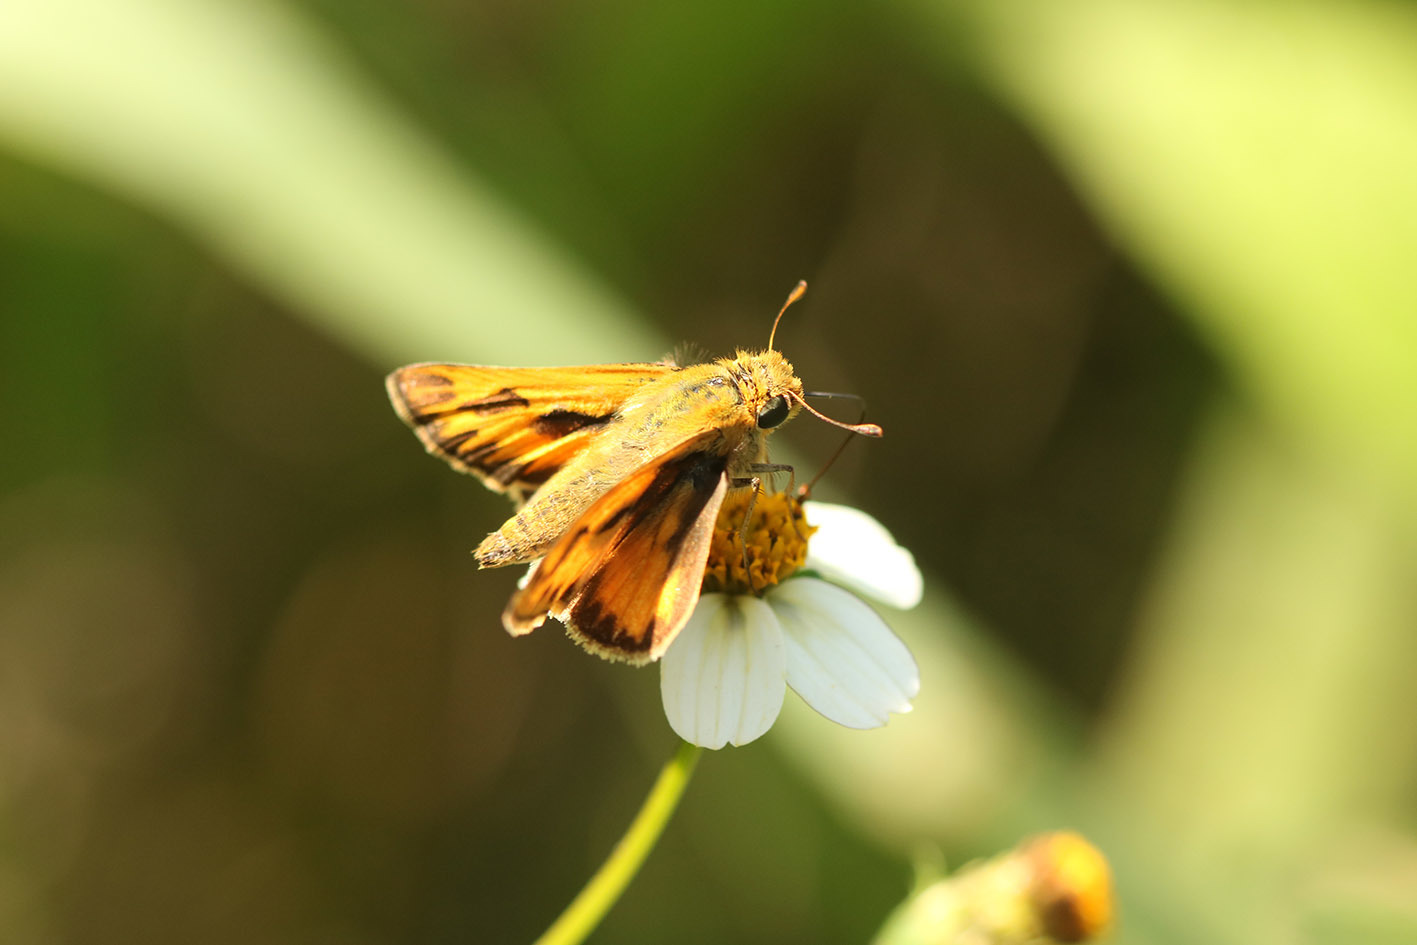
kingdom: Animalia
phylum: Arthropoda
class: Insecta
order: Lepidoptera
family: Hesperiidae
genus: Hylephila
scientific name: Hylephila phyleus
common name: Fiery skipper
